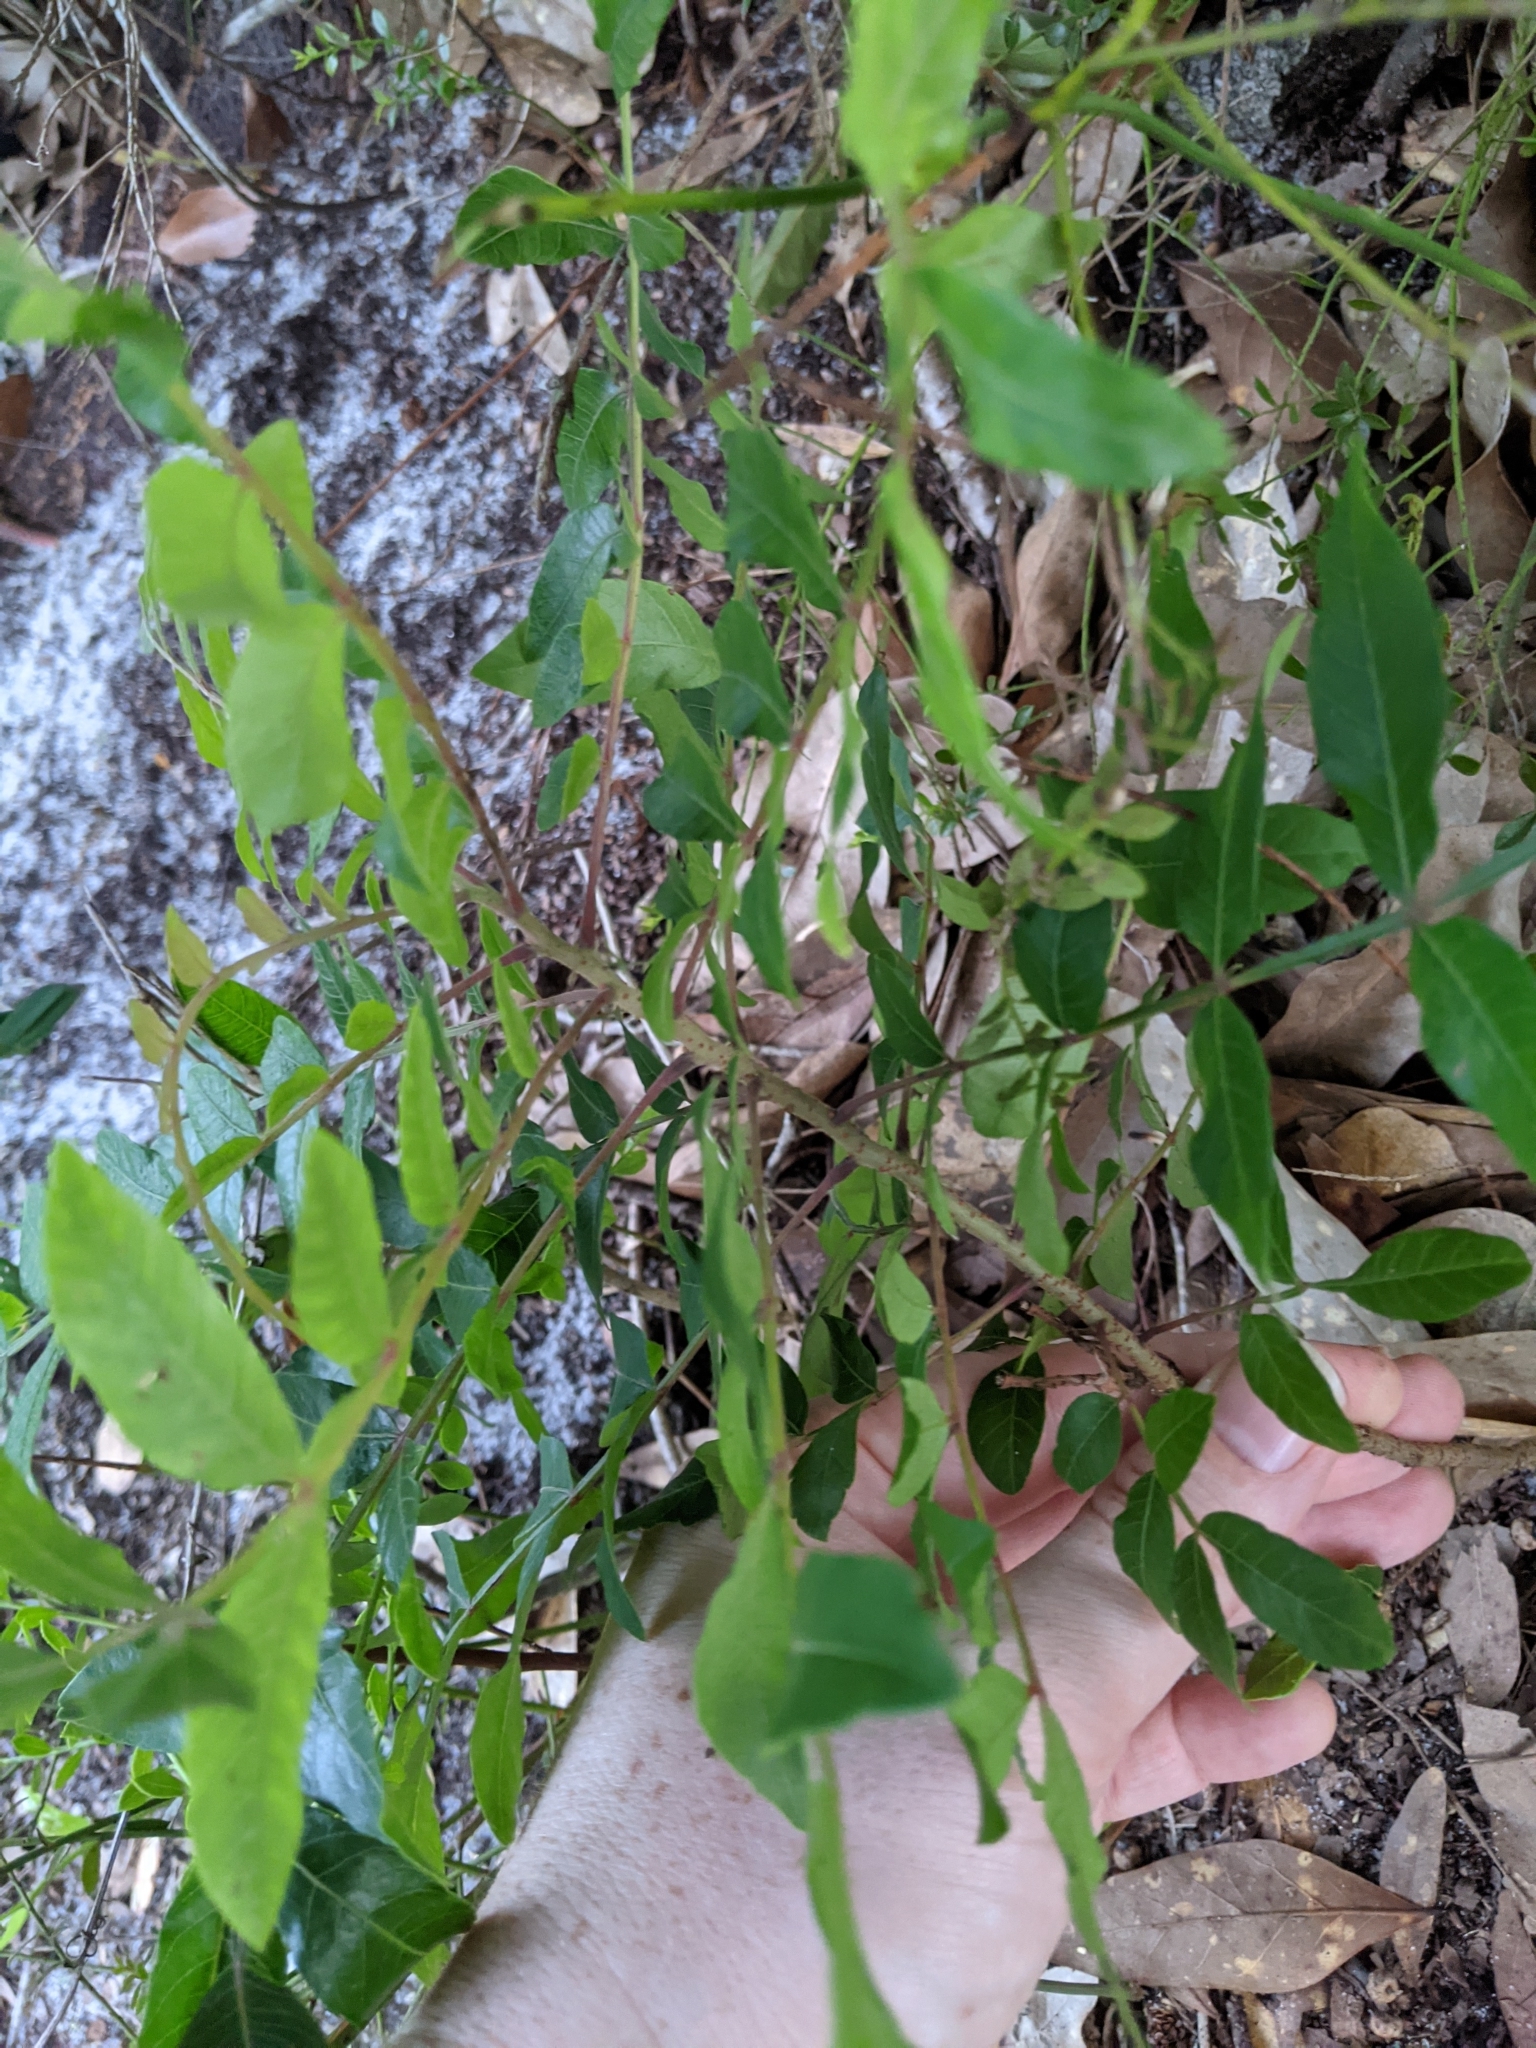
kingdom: Plantae
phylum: Tracheophyta
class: Magnoliopsida
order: Sapindales
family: Anacardiaceae
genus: Rhus
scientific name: Rhus copallina
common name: Shining sumac
